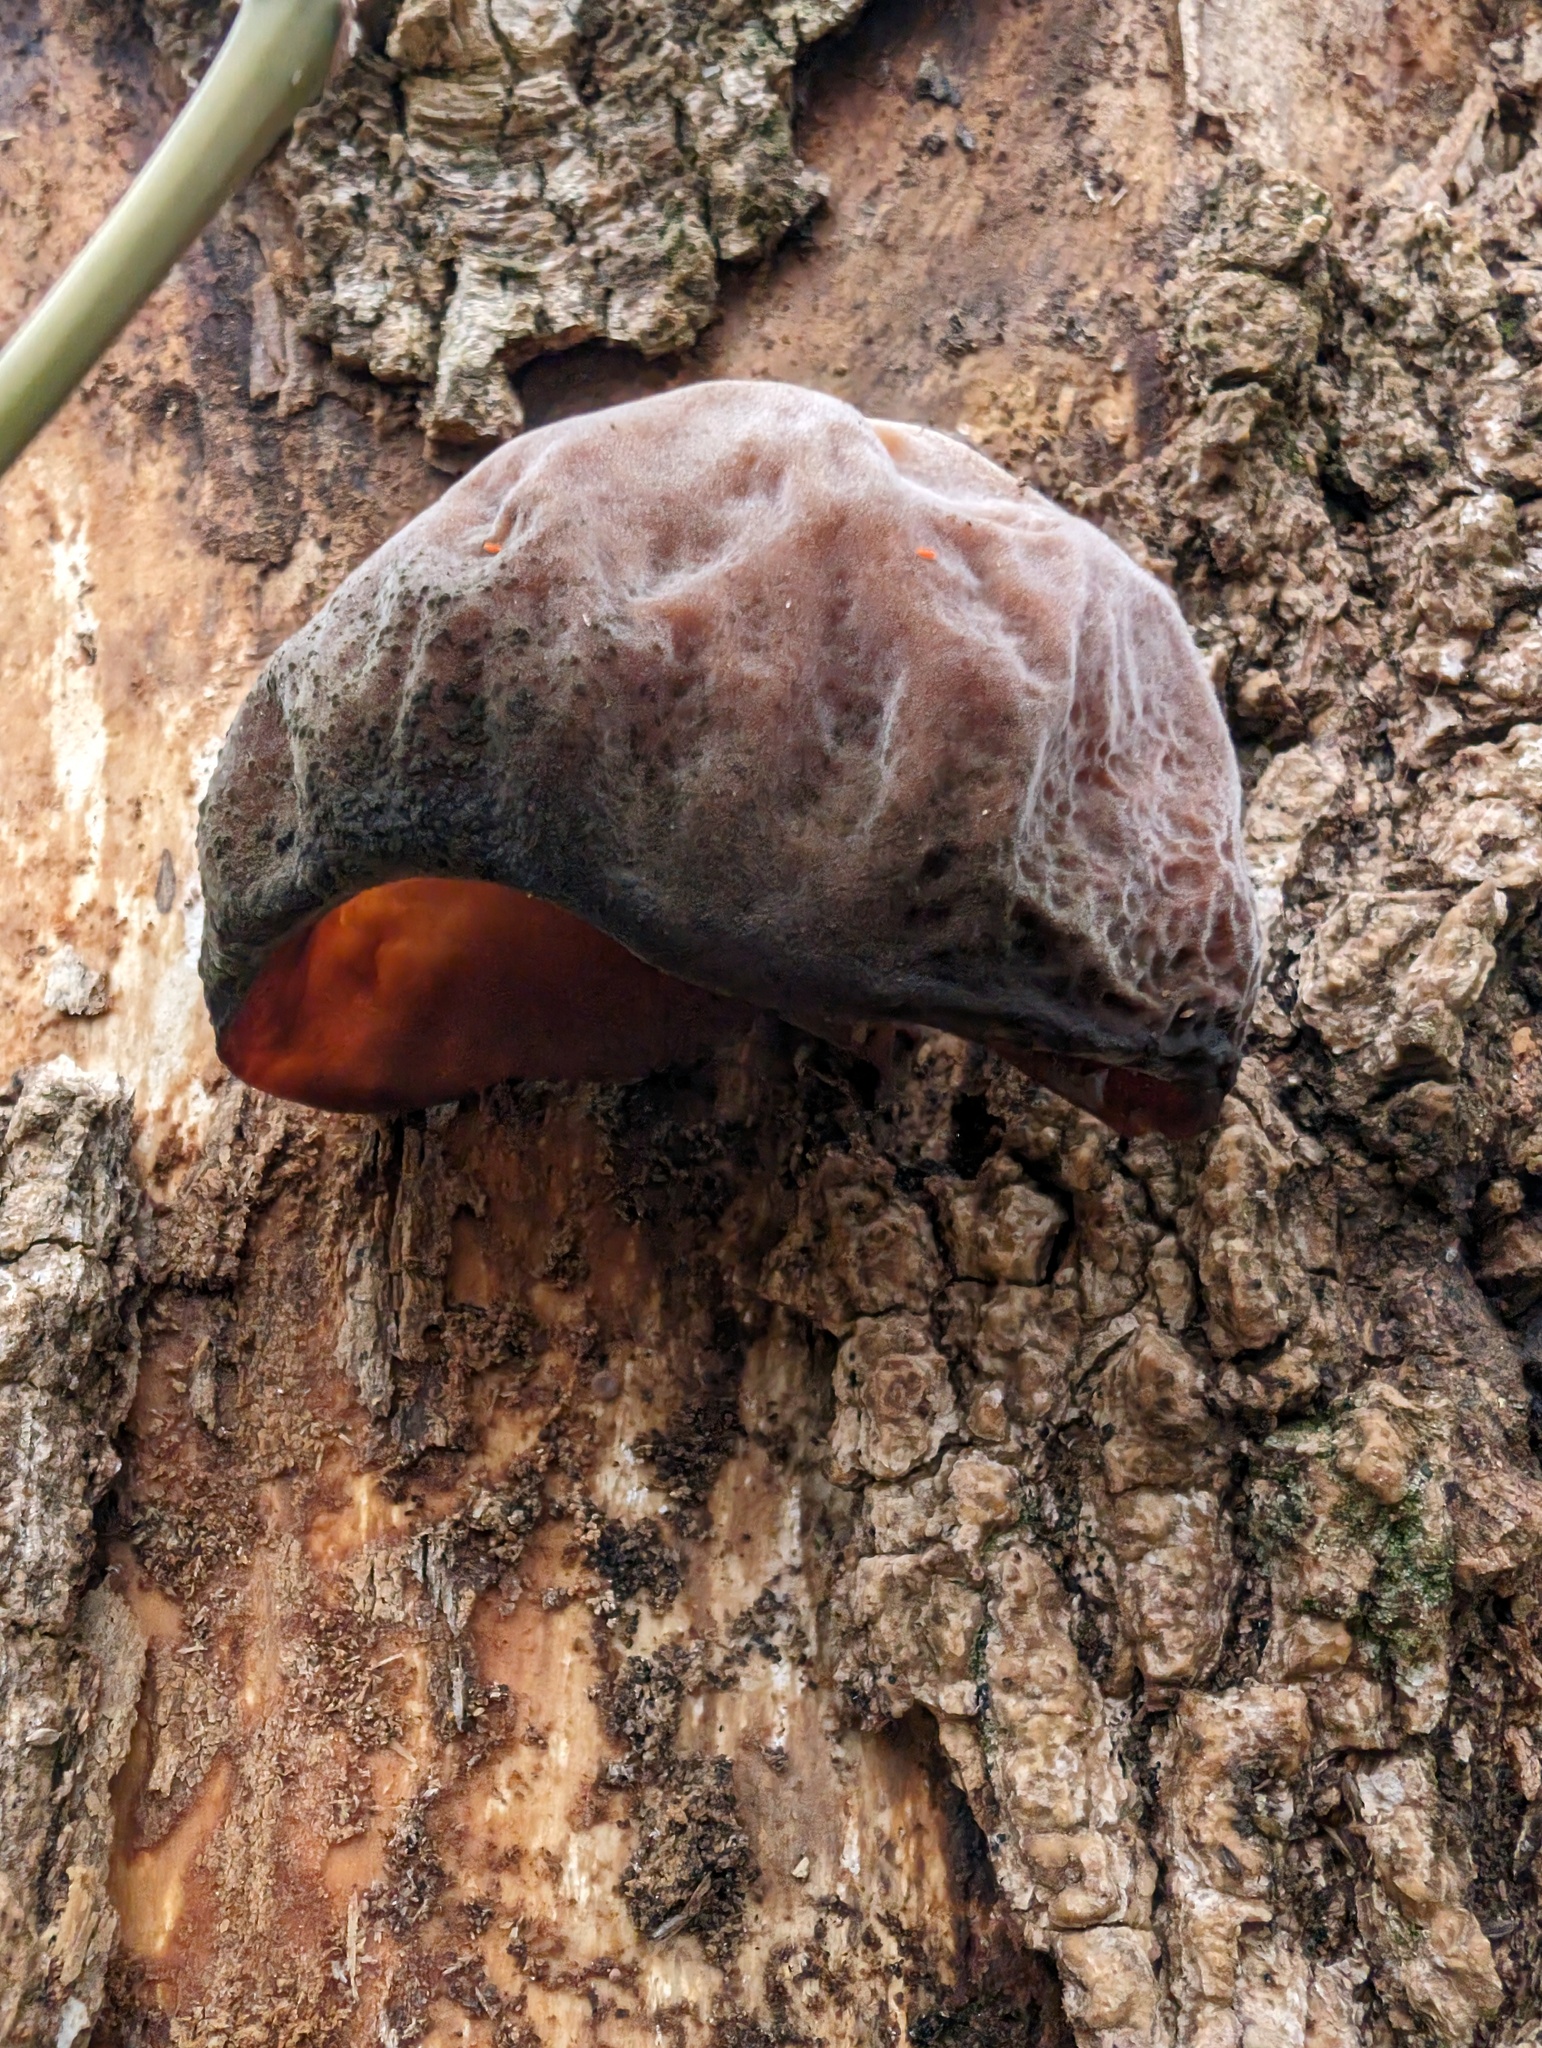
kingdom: Fungi
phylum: Basidiomycota
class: Agaricomycetes
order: Auriculariales
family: Auriculariaceae
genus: Auricularia
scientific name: Auricularia americana
